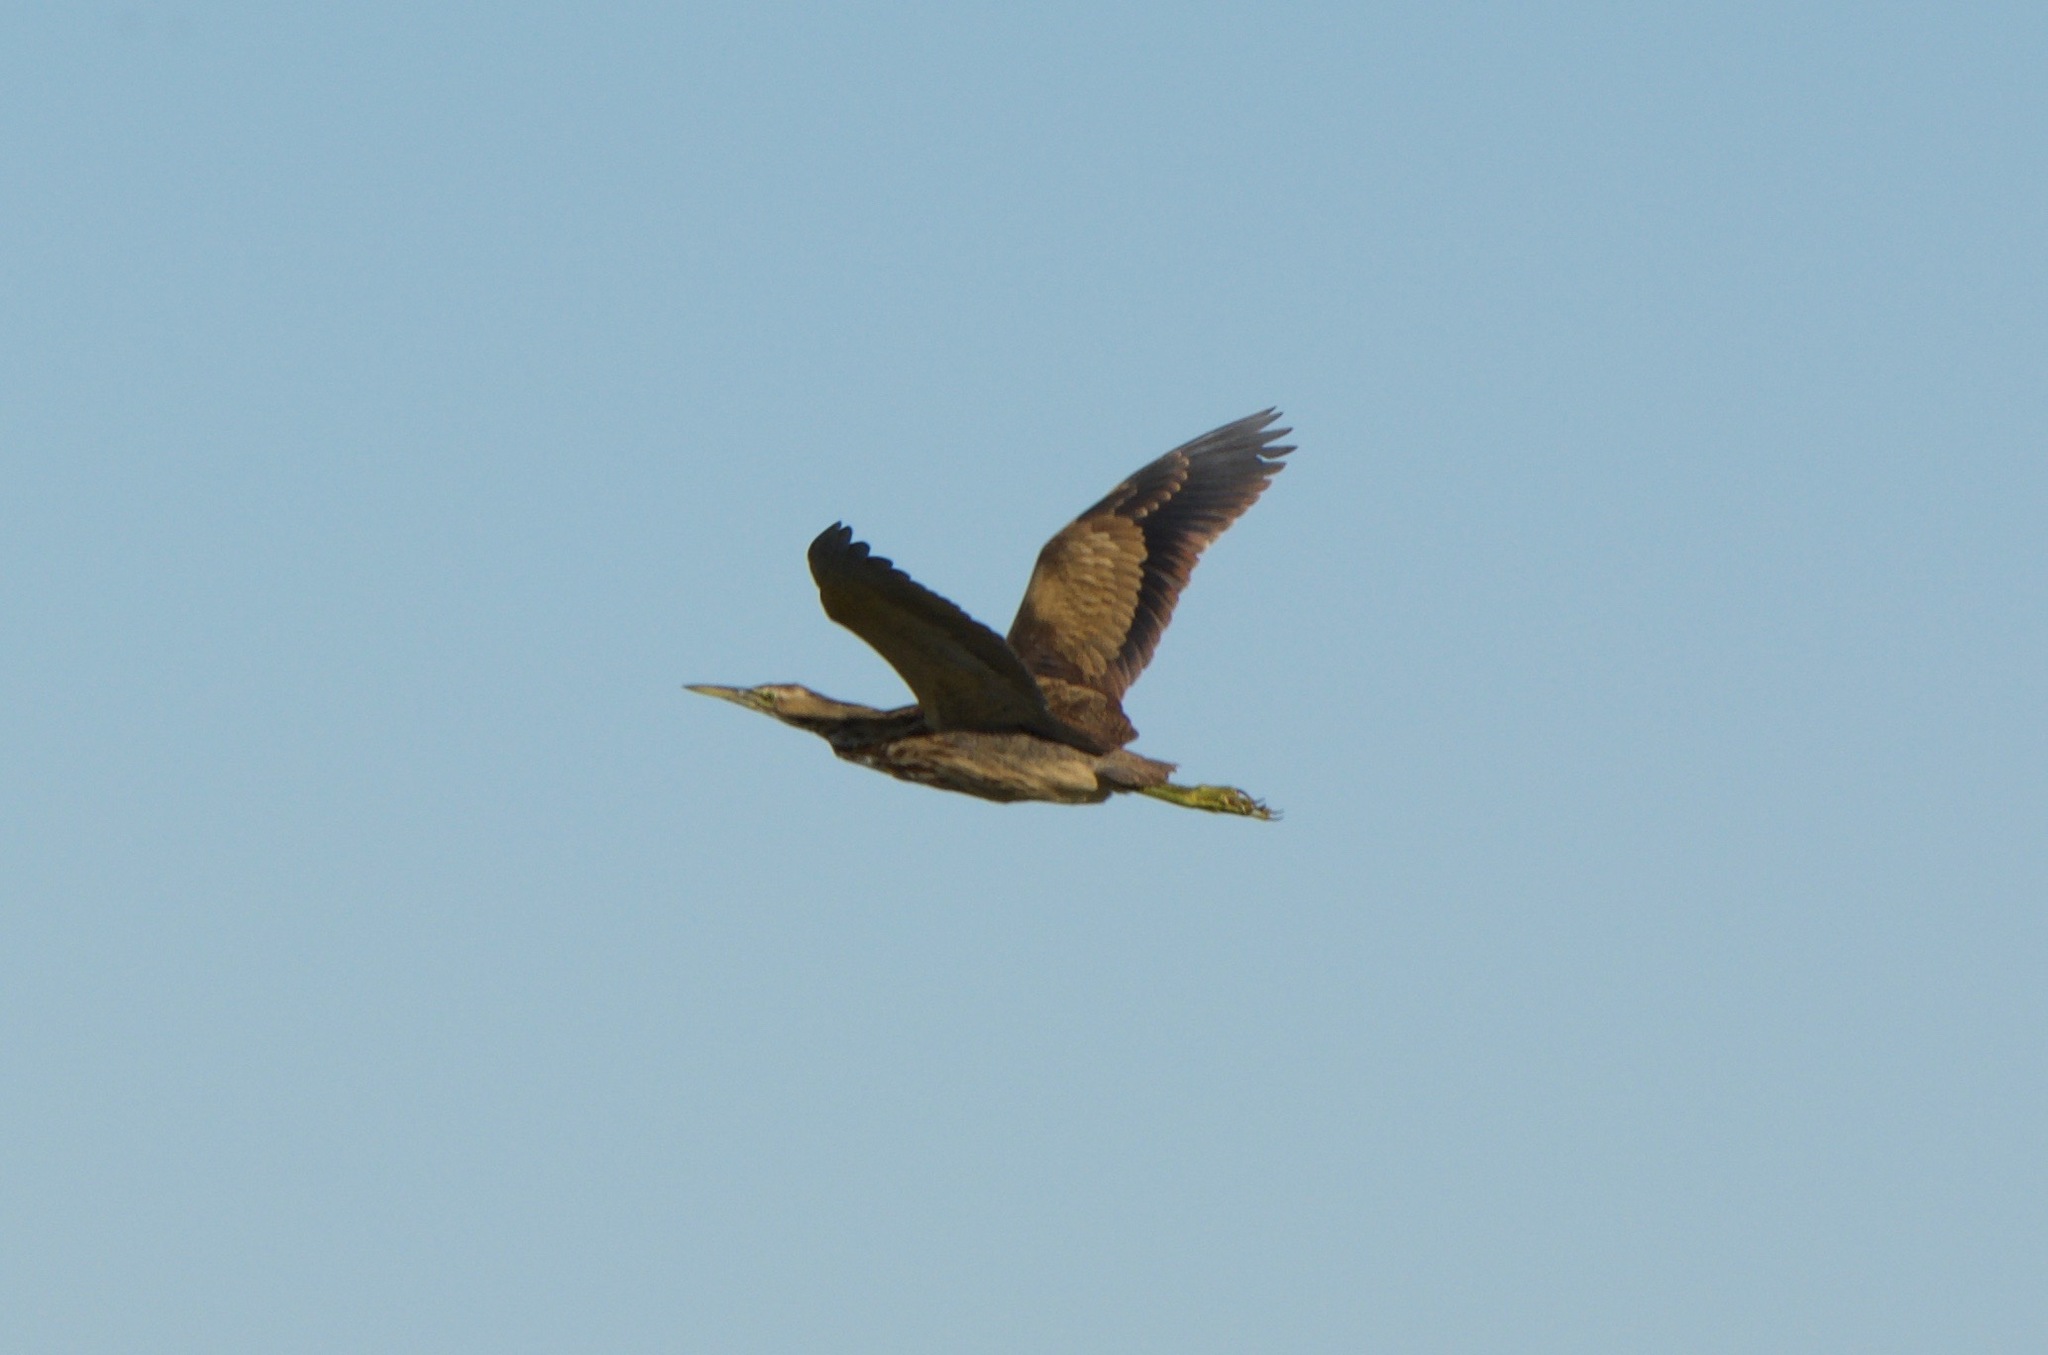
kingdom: Animalia
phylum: Chordata
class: Aves
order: Pelecaniformes
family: Ardeidae
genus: Botaurus
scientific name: Botaurus lentiginosus
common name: American bittern
